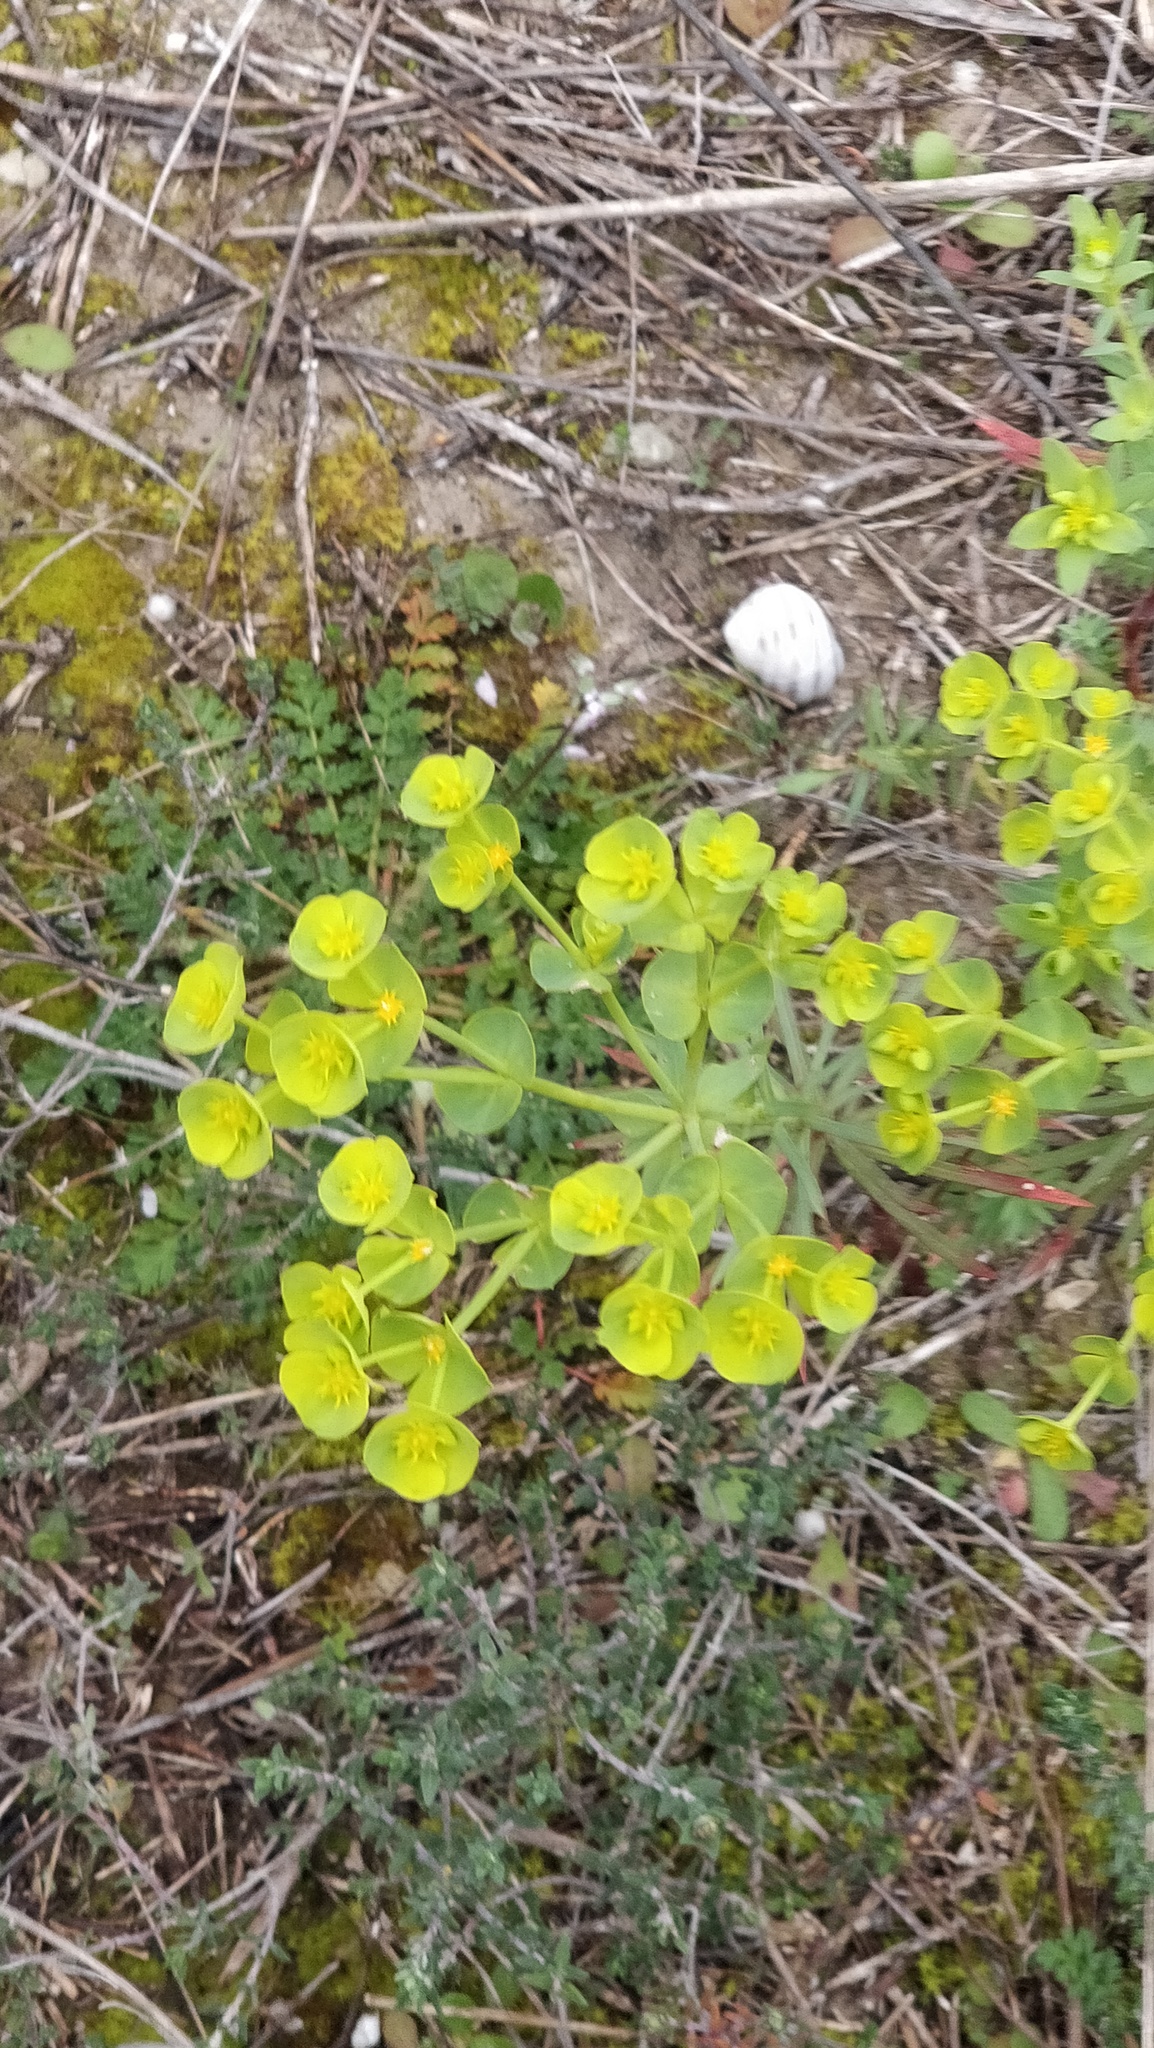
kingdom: Plantae
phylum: Tracheophyta
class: Magnoliopsida
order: Malpighiales
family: Euphorbiaceae
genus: Euphorbia
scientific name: Euphorbia segetalis
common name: Corn spurge
